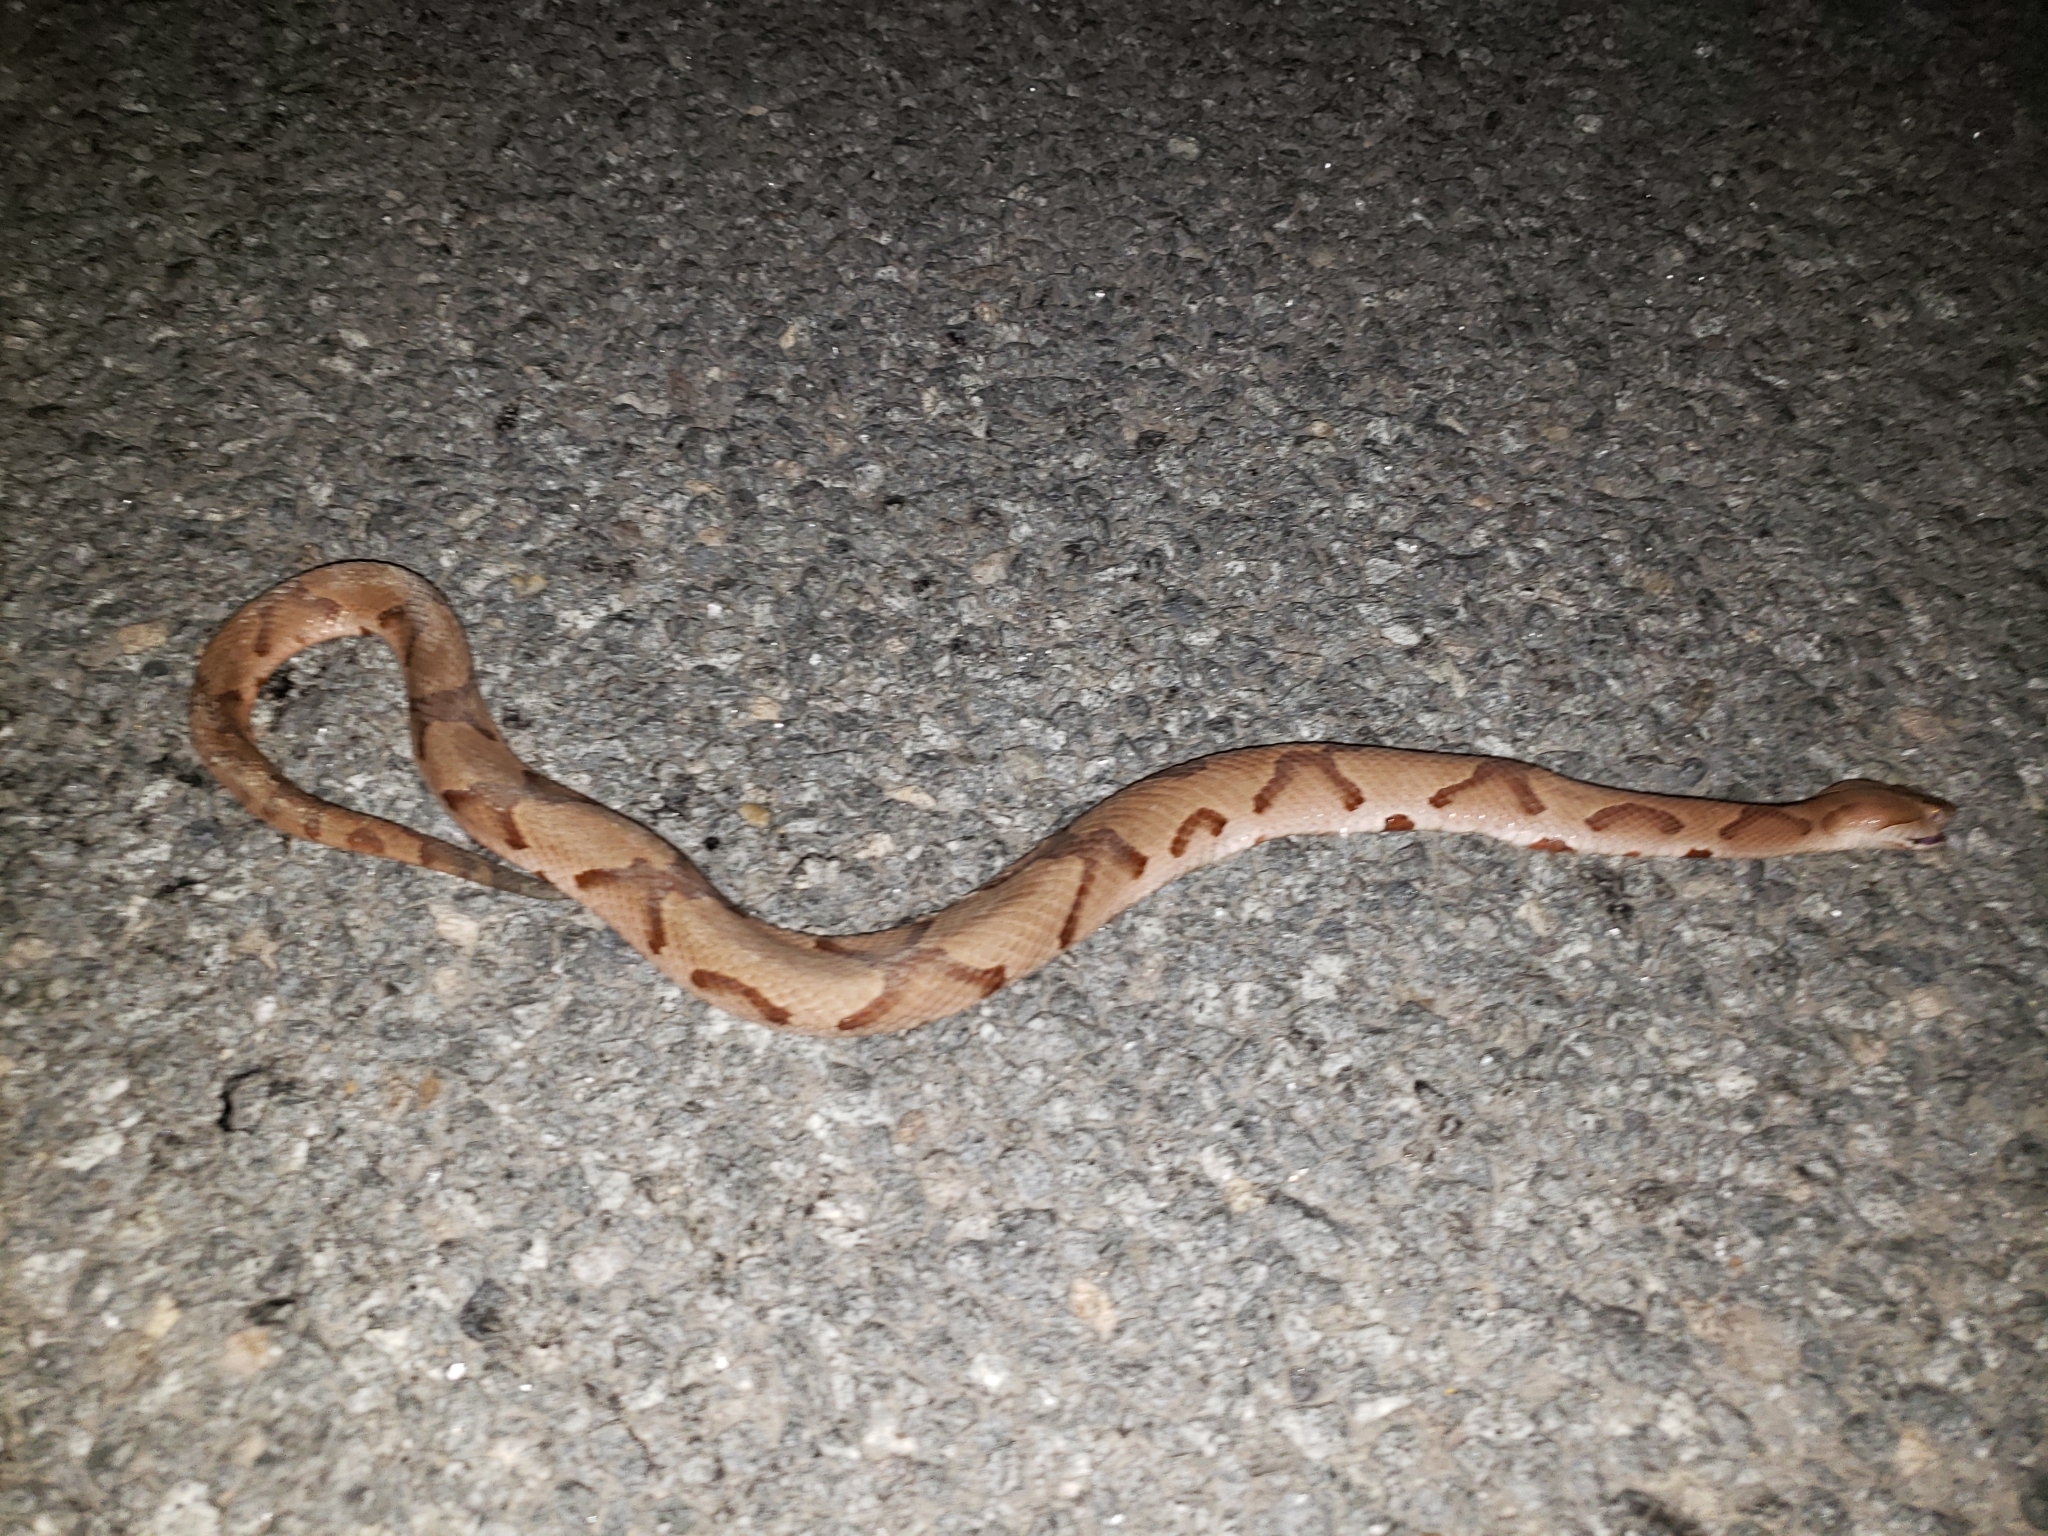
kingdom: Animalia
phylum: Chordata
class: Squamata
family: Viperidae
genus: Agkistrodon
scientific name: Agkistrodon contortrix
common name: Northern copperhead
